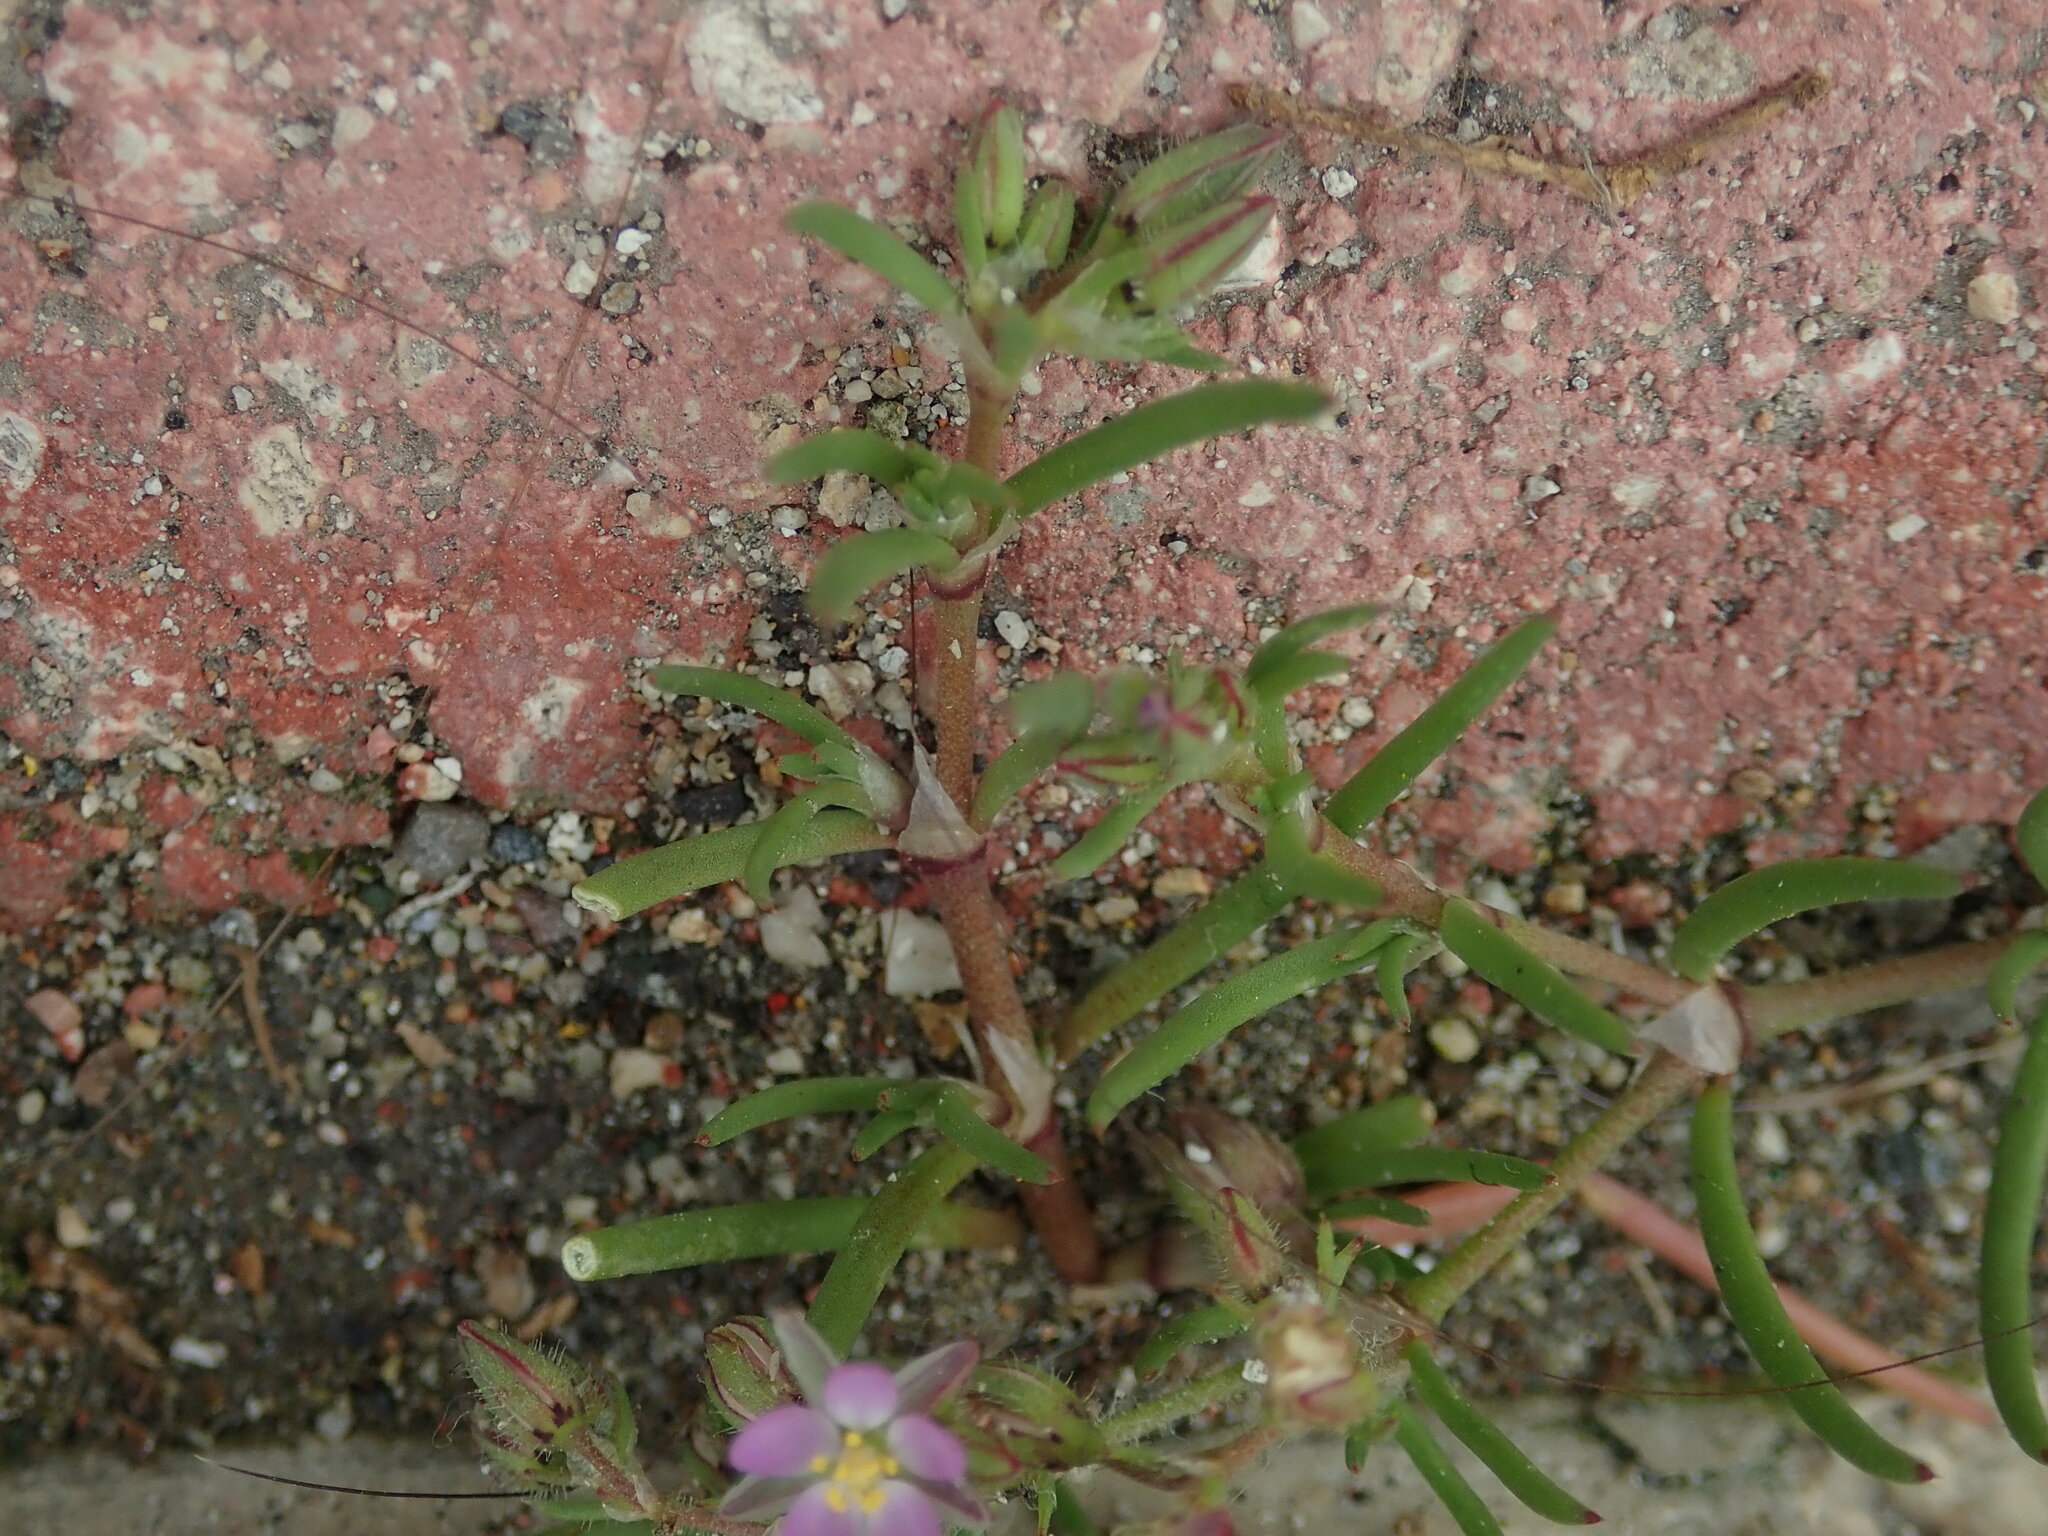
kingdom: Plantae
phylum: Tracheophyta
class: Magnoliopsida
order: Caryophyllales
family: Caryophyllaceae
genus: Spergularia
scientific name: Spergularia bocconei
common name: Greek sea-spurrey
